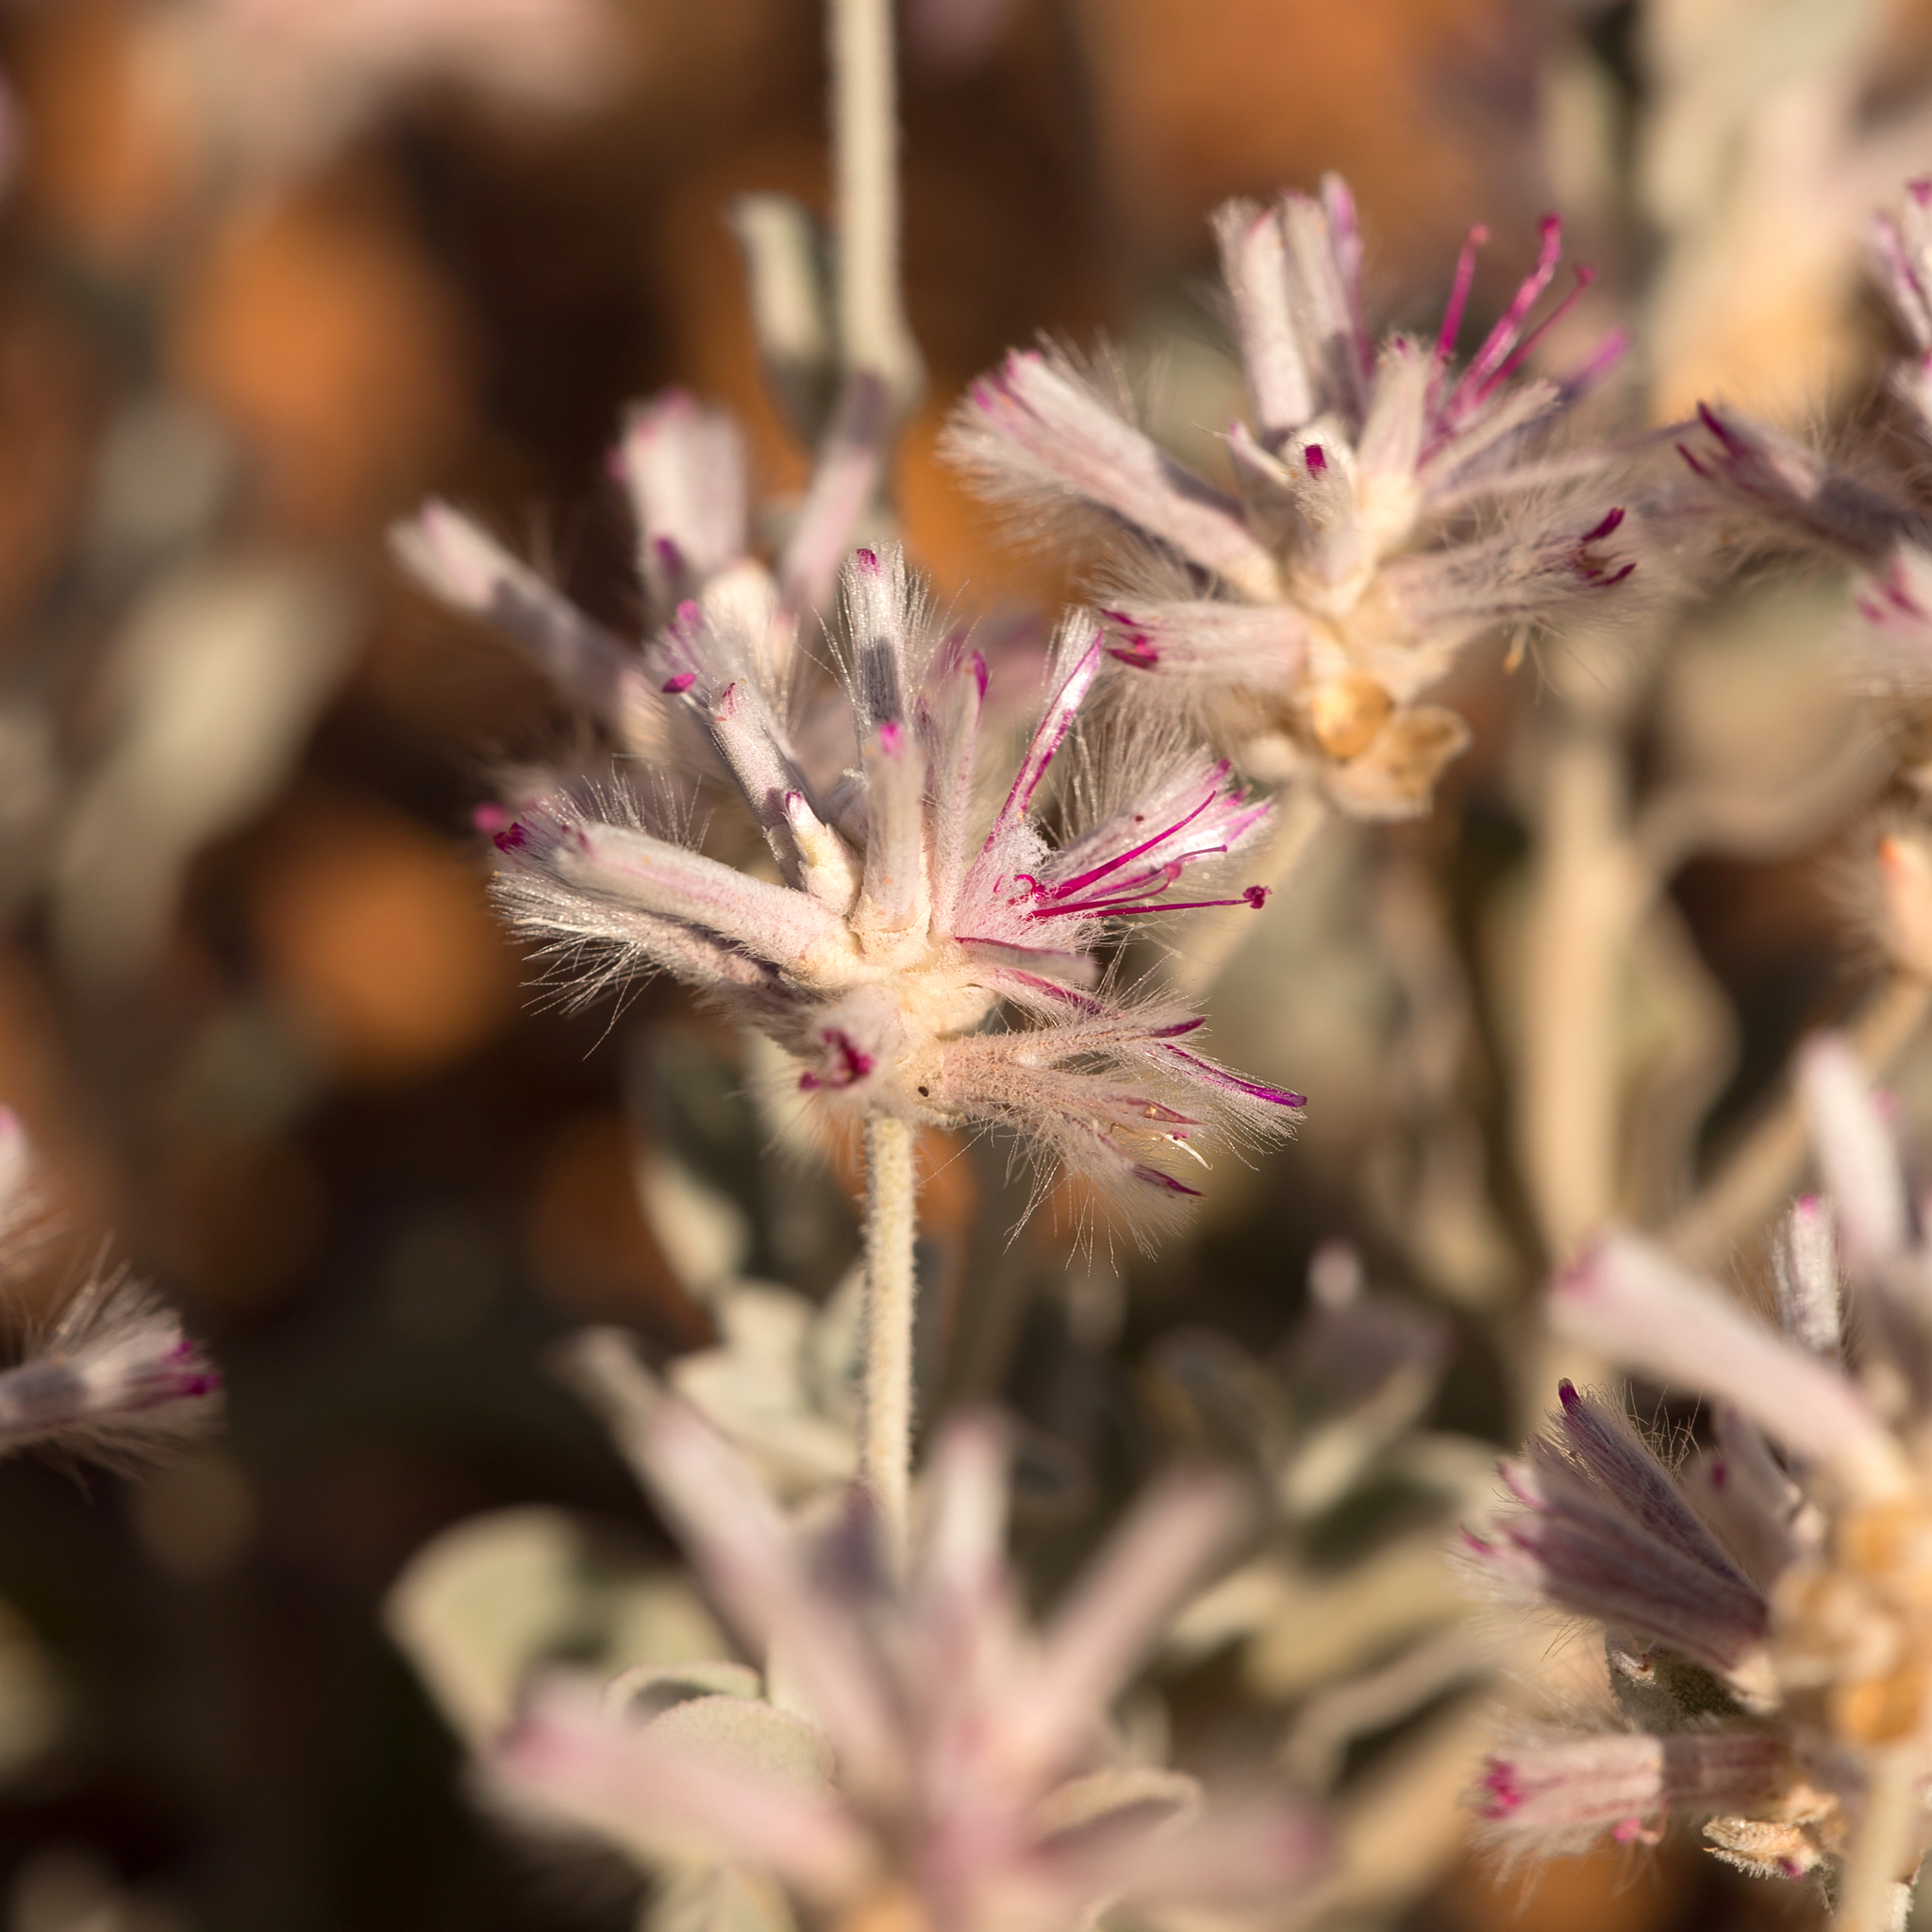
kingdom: Plantae
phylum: Tracheophyta
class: Magnoliopsida
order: Caryophyllales
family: Amaranthaceae
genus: Ptilotus
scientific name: Ptilotus sessilifolius
